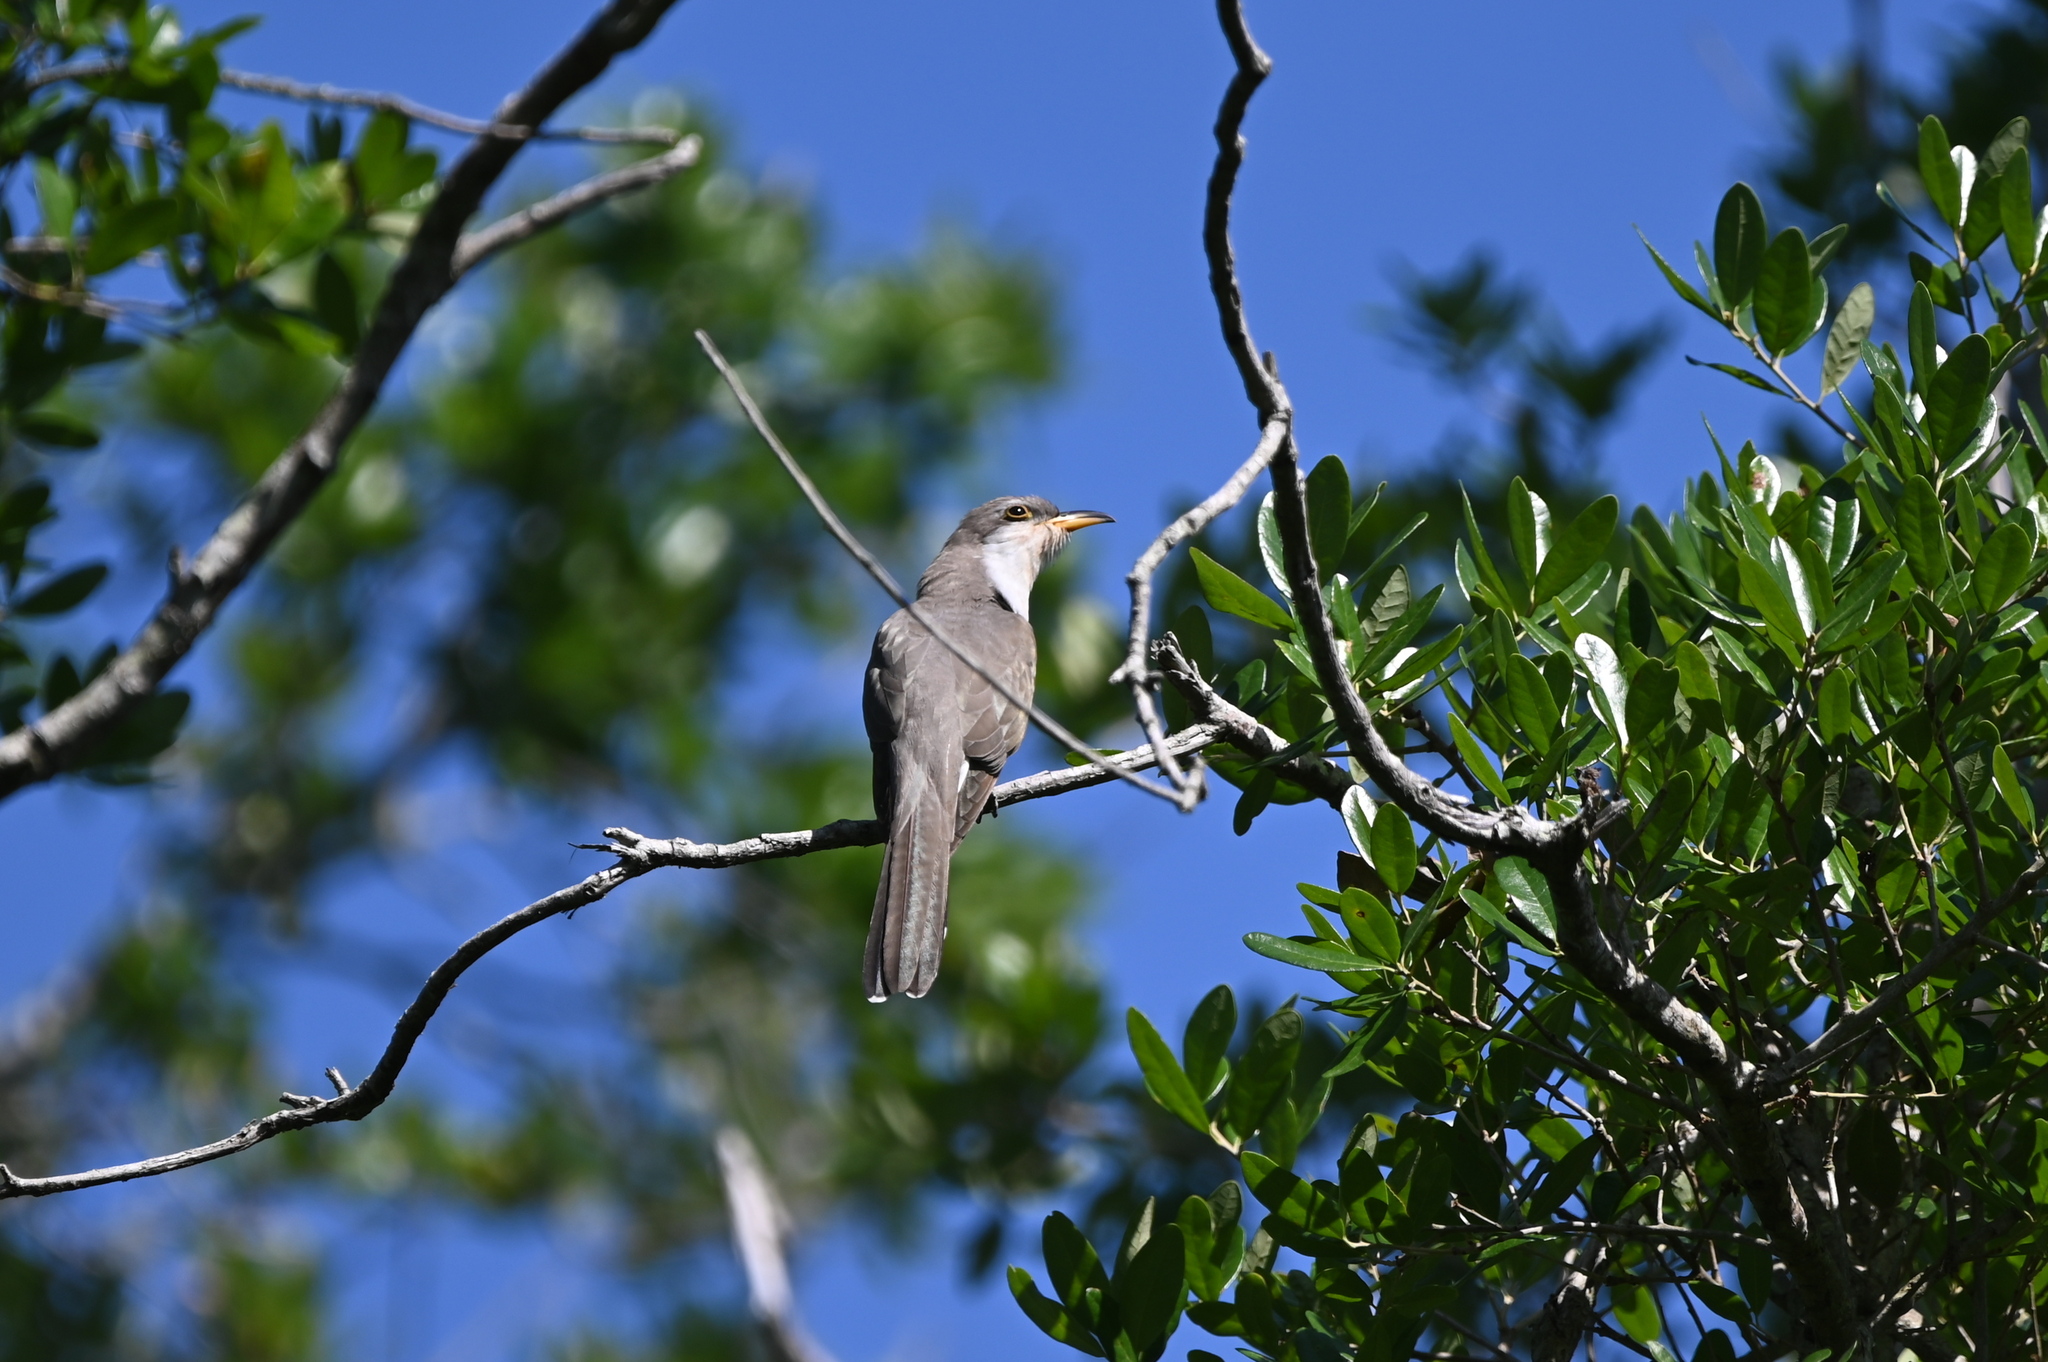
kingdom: Animalia
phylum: Chordata
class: Aves
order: Cuculiformes
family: Cuculidae
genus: Coccyzus
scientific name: Coccyzus americanus
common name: Yellow-billed cuckoo
